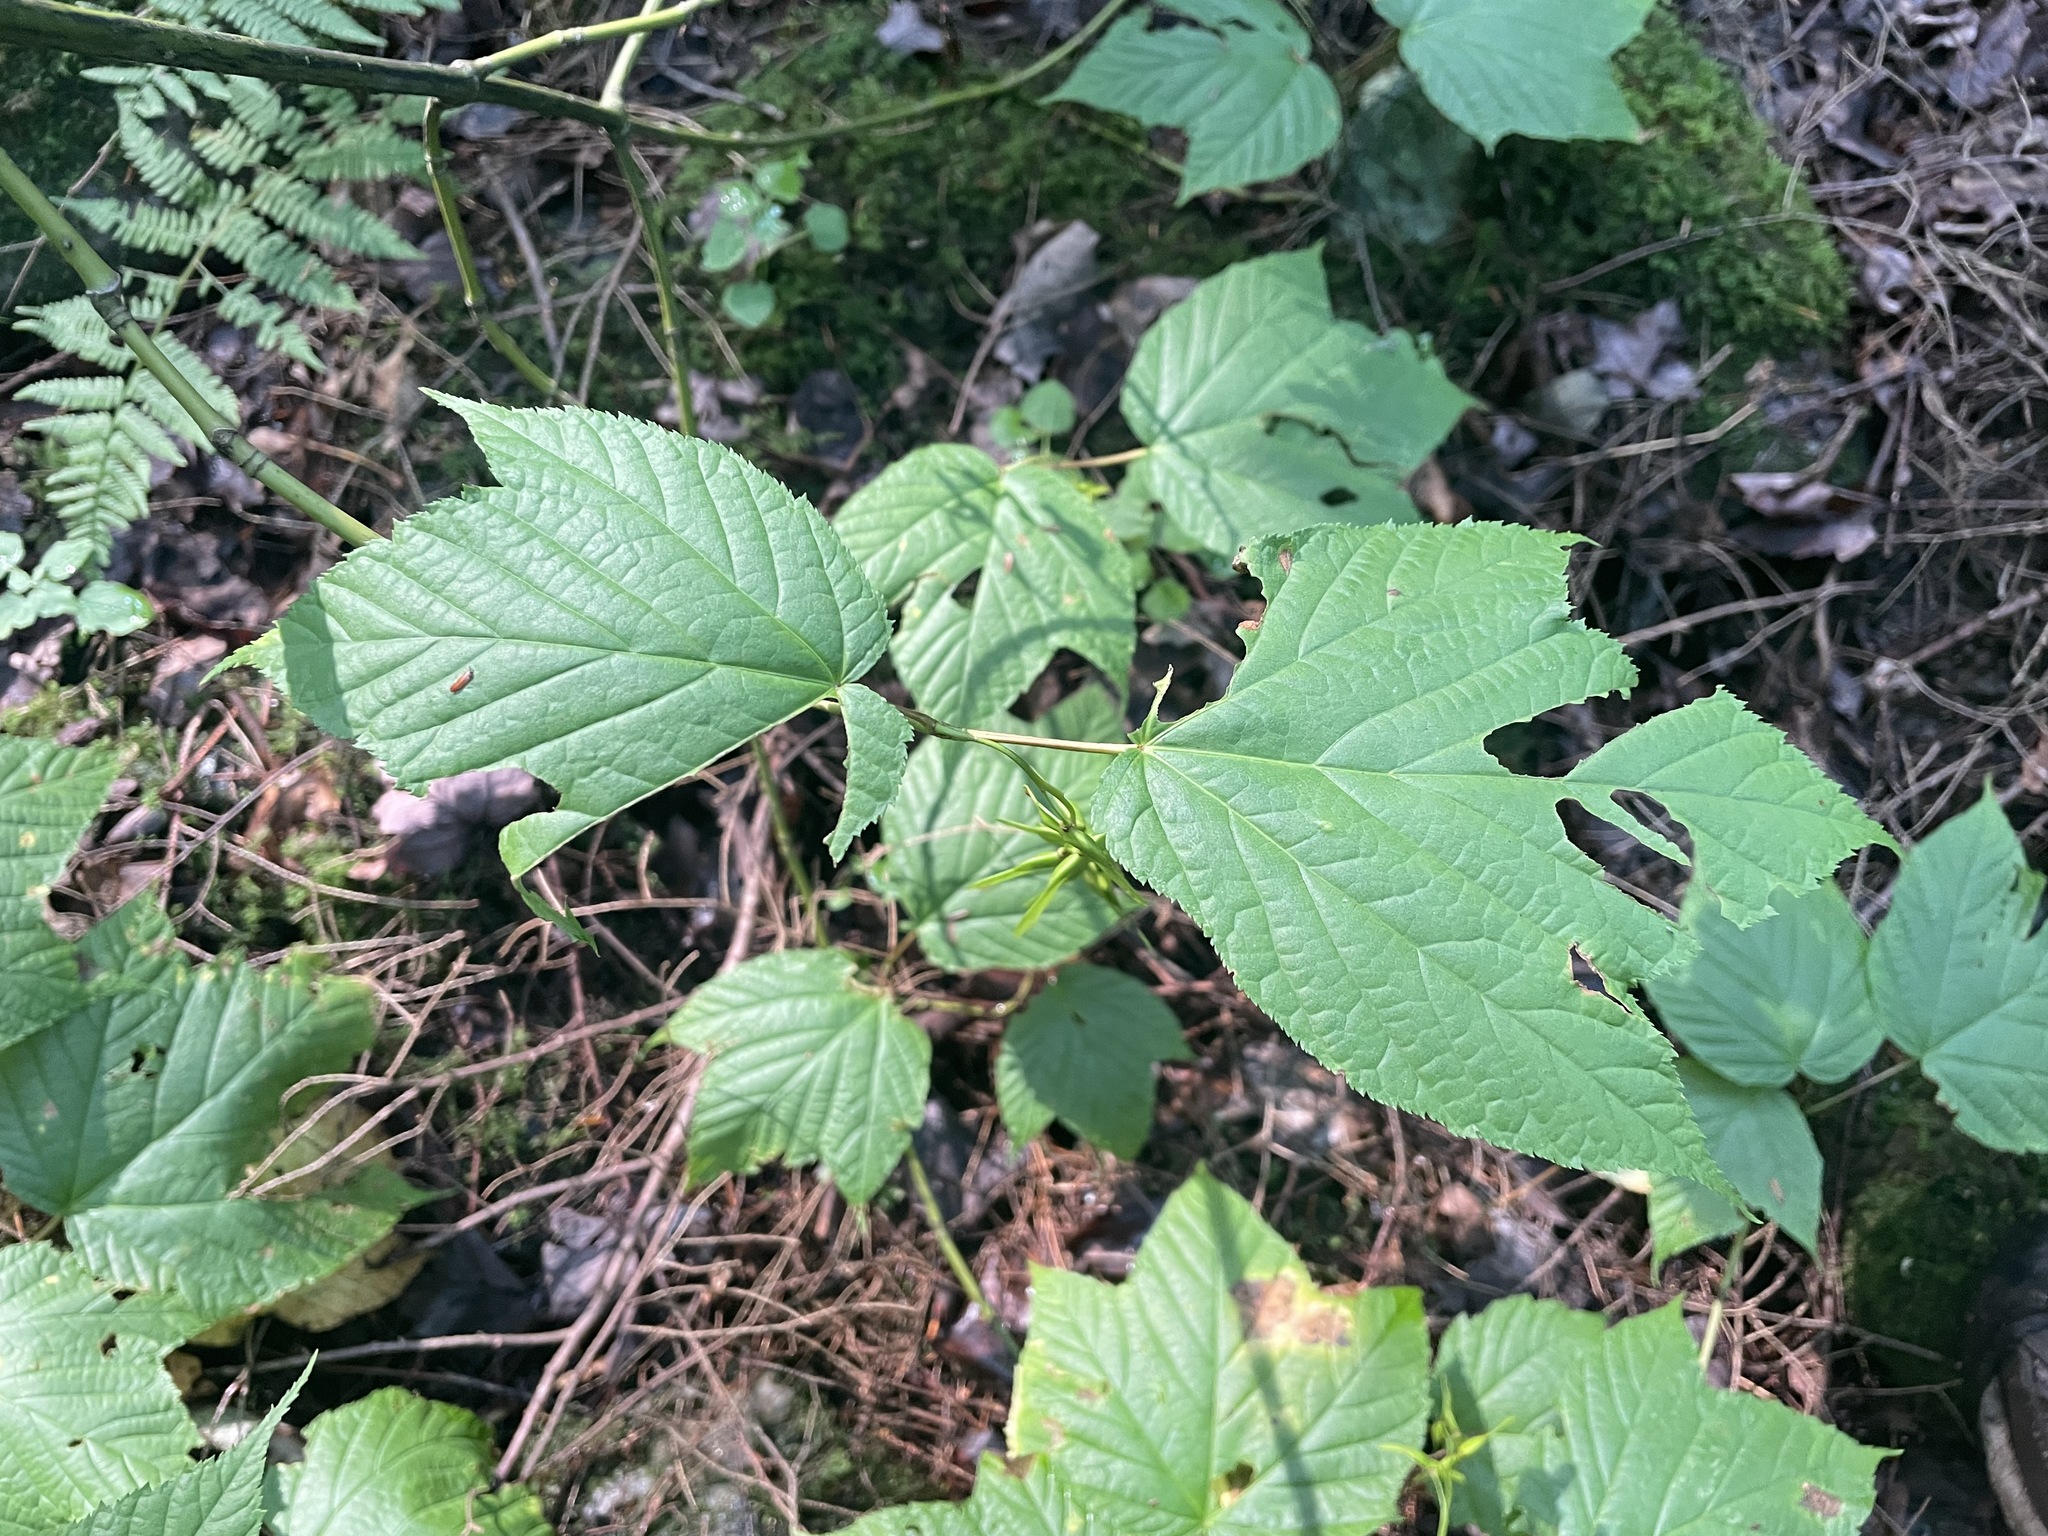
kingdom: Plantae
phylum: Tracheophyta
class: Magnoliopsida
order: Sapindales
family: Sapindaceae
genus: Acer
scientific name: Acer pensylvanicum
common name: Moosewood
